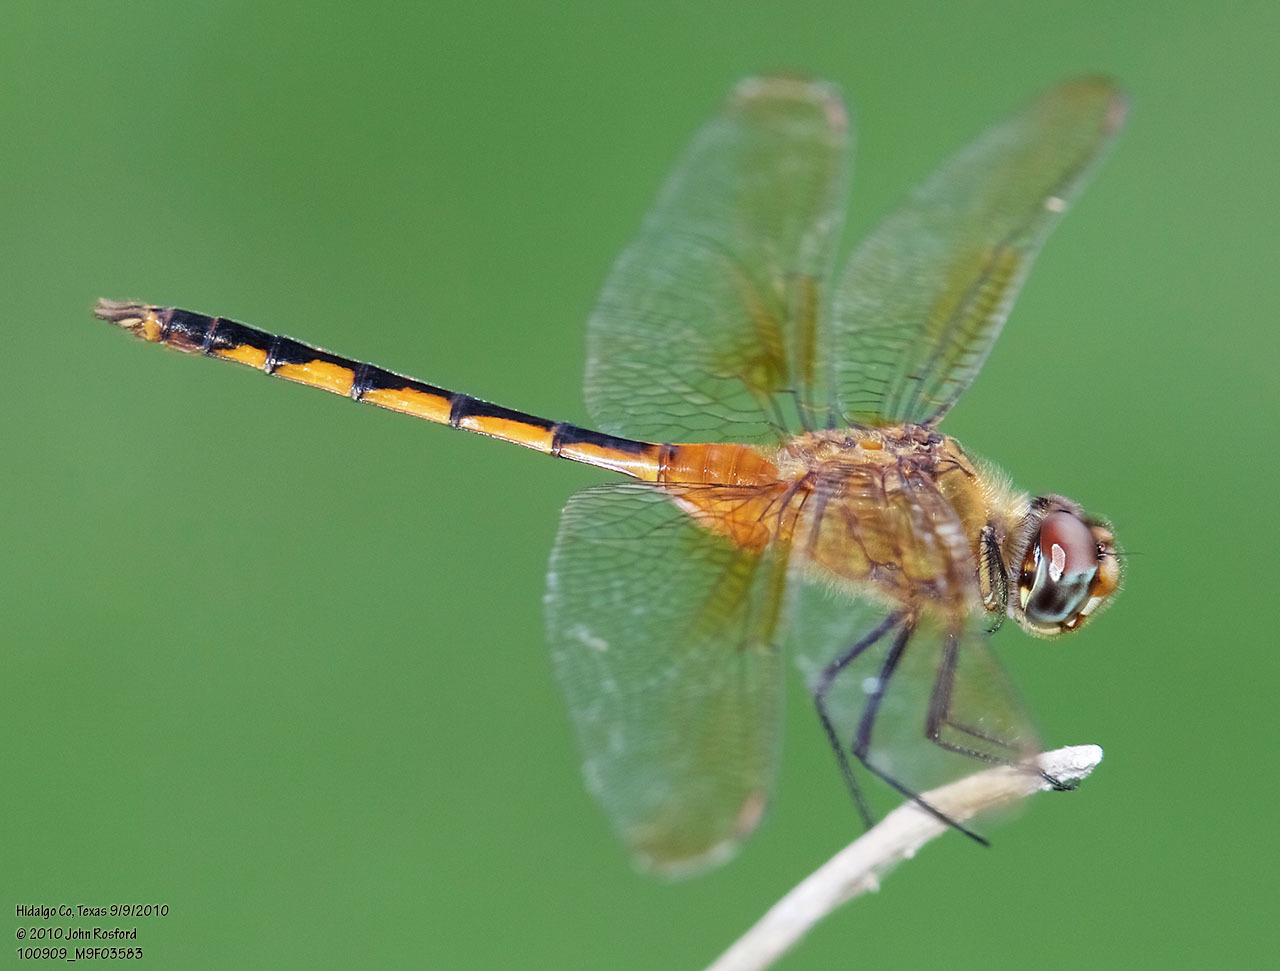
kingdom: Animalia
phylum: Arthropoda
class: Insecta
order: Odonata
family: Libellulidae
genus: Brachymesia
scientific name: Brachymesia herbida
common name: Tawny pennant
